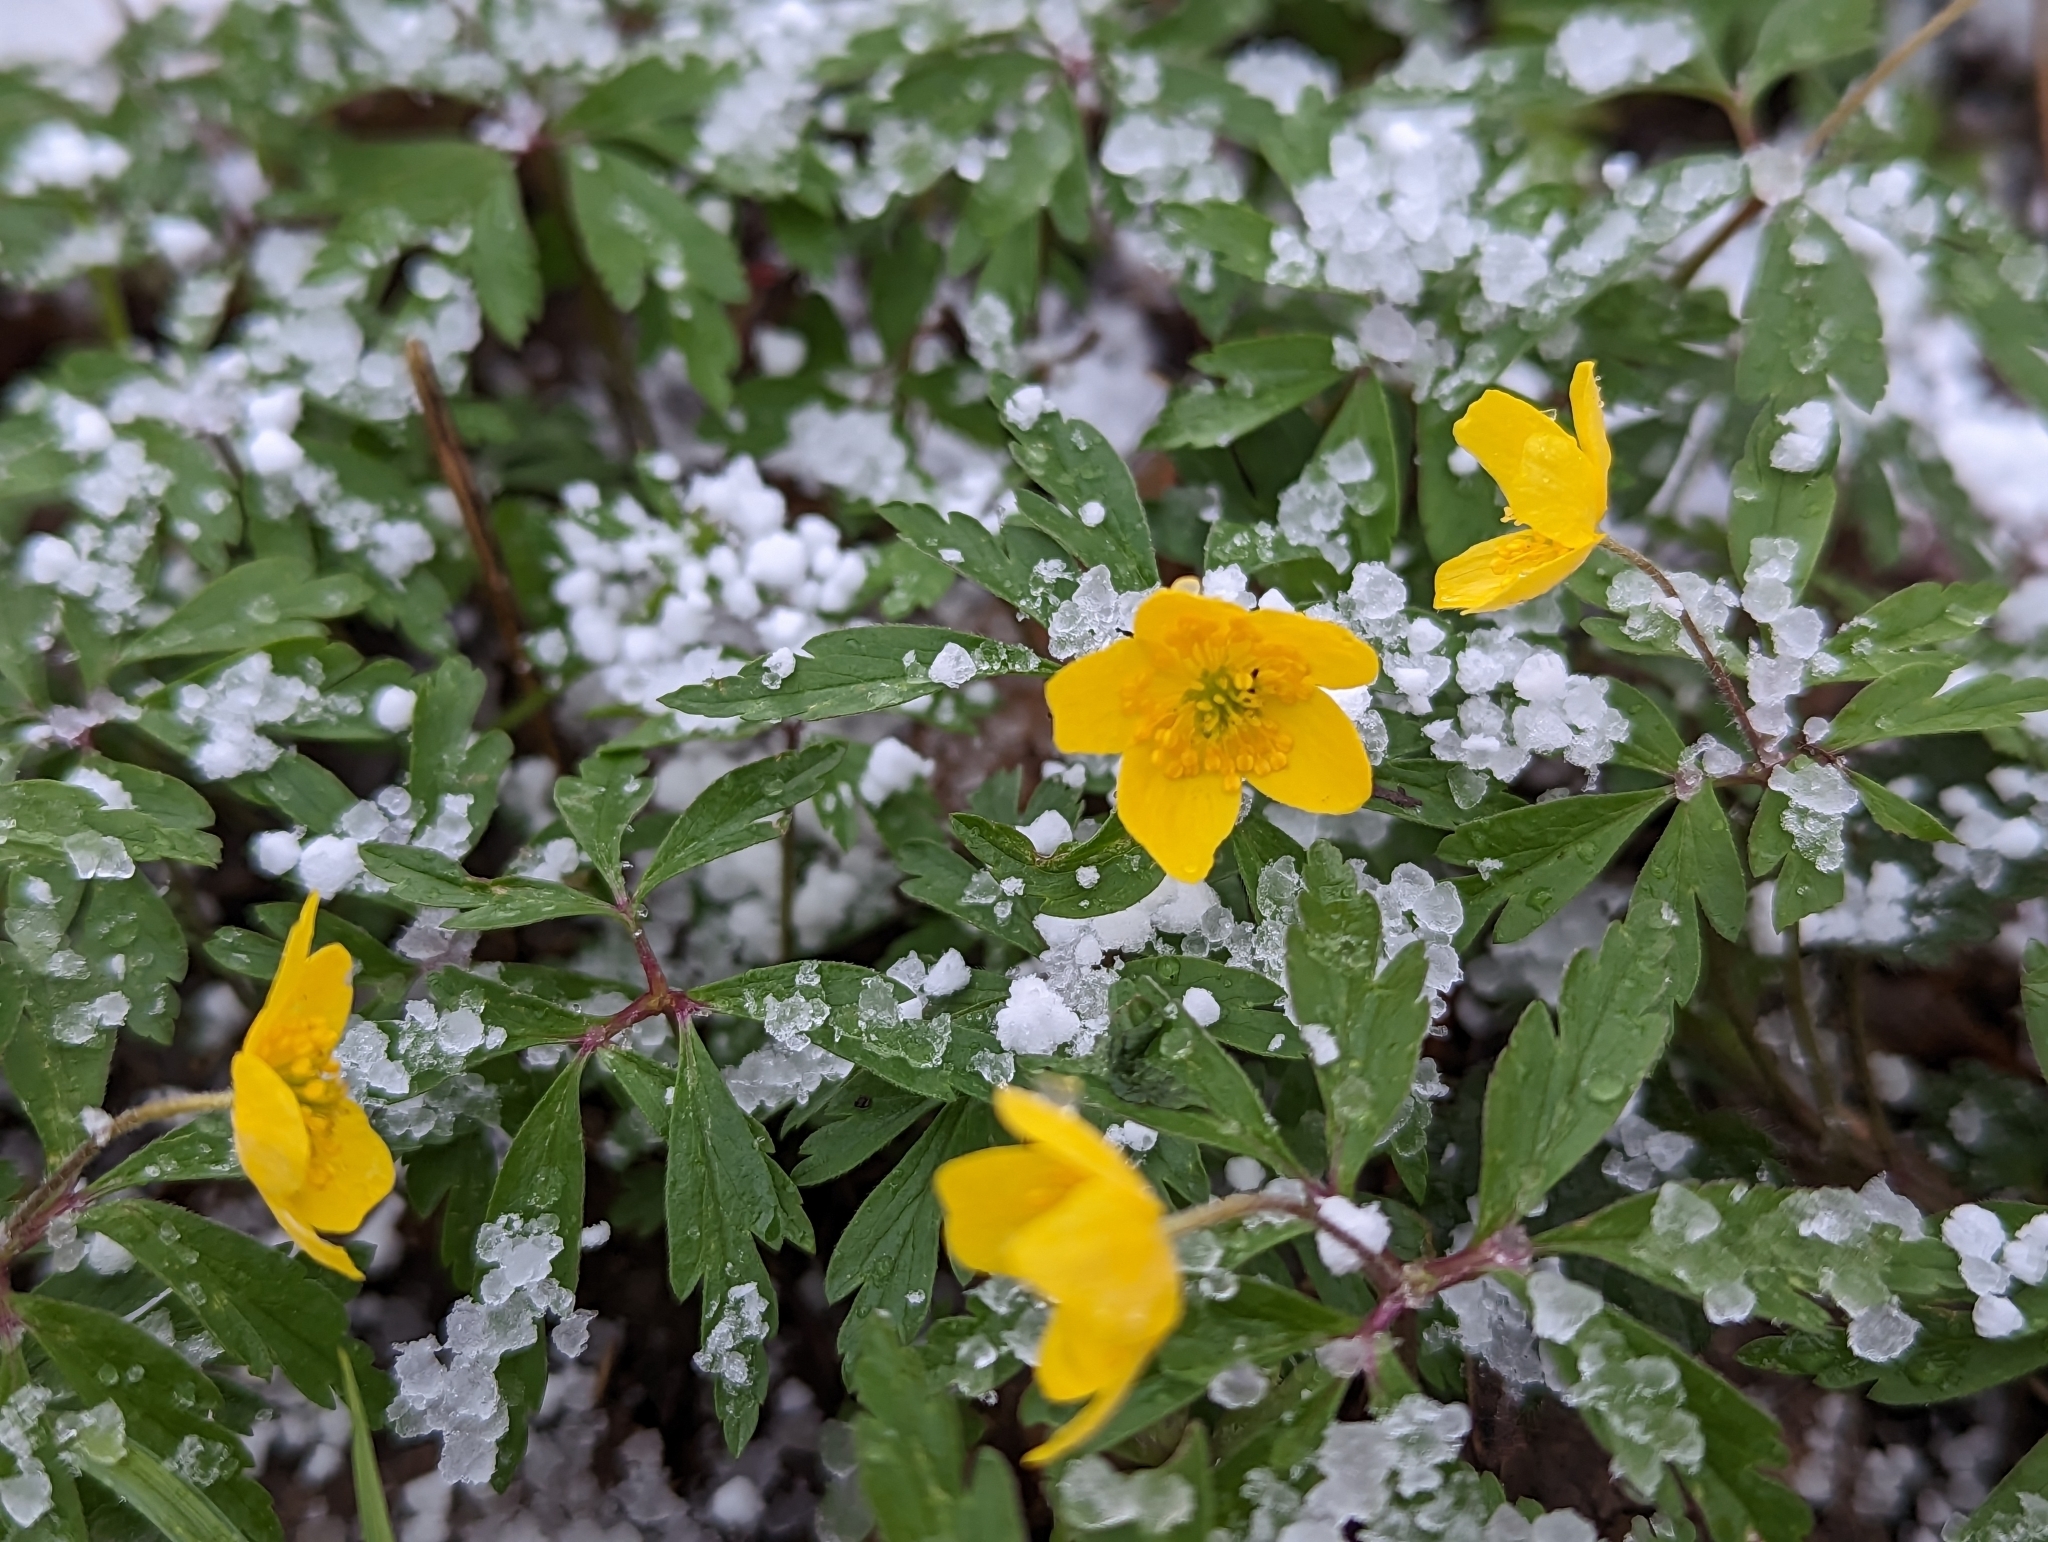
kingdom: Plantae
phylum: Tracheophyta
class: Magnoliopsida
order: Ranunculales
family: Ranunculaceae
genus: Anemone
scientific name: Anemone ranunculoides
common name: Yellow anemone
